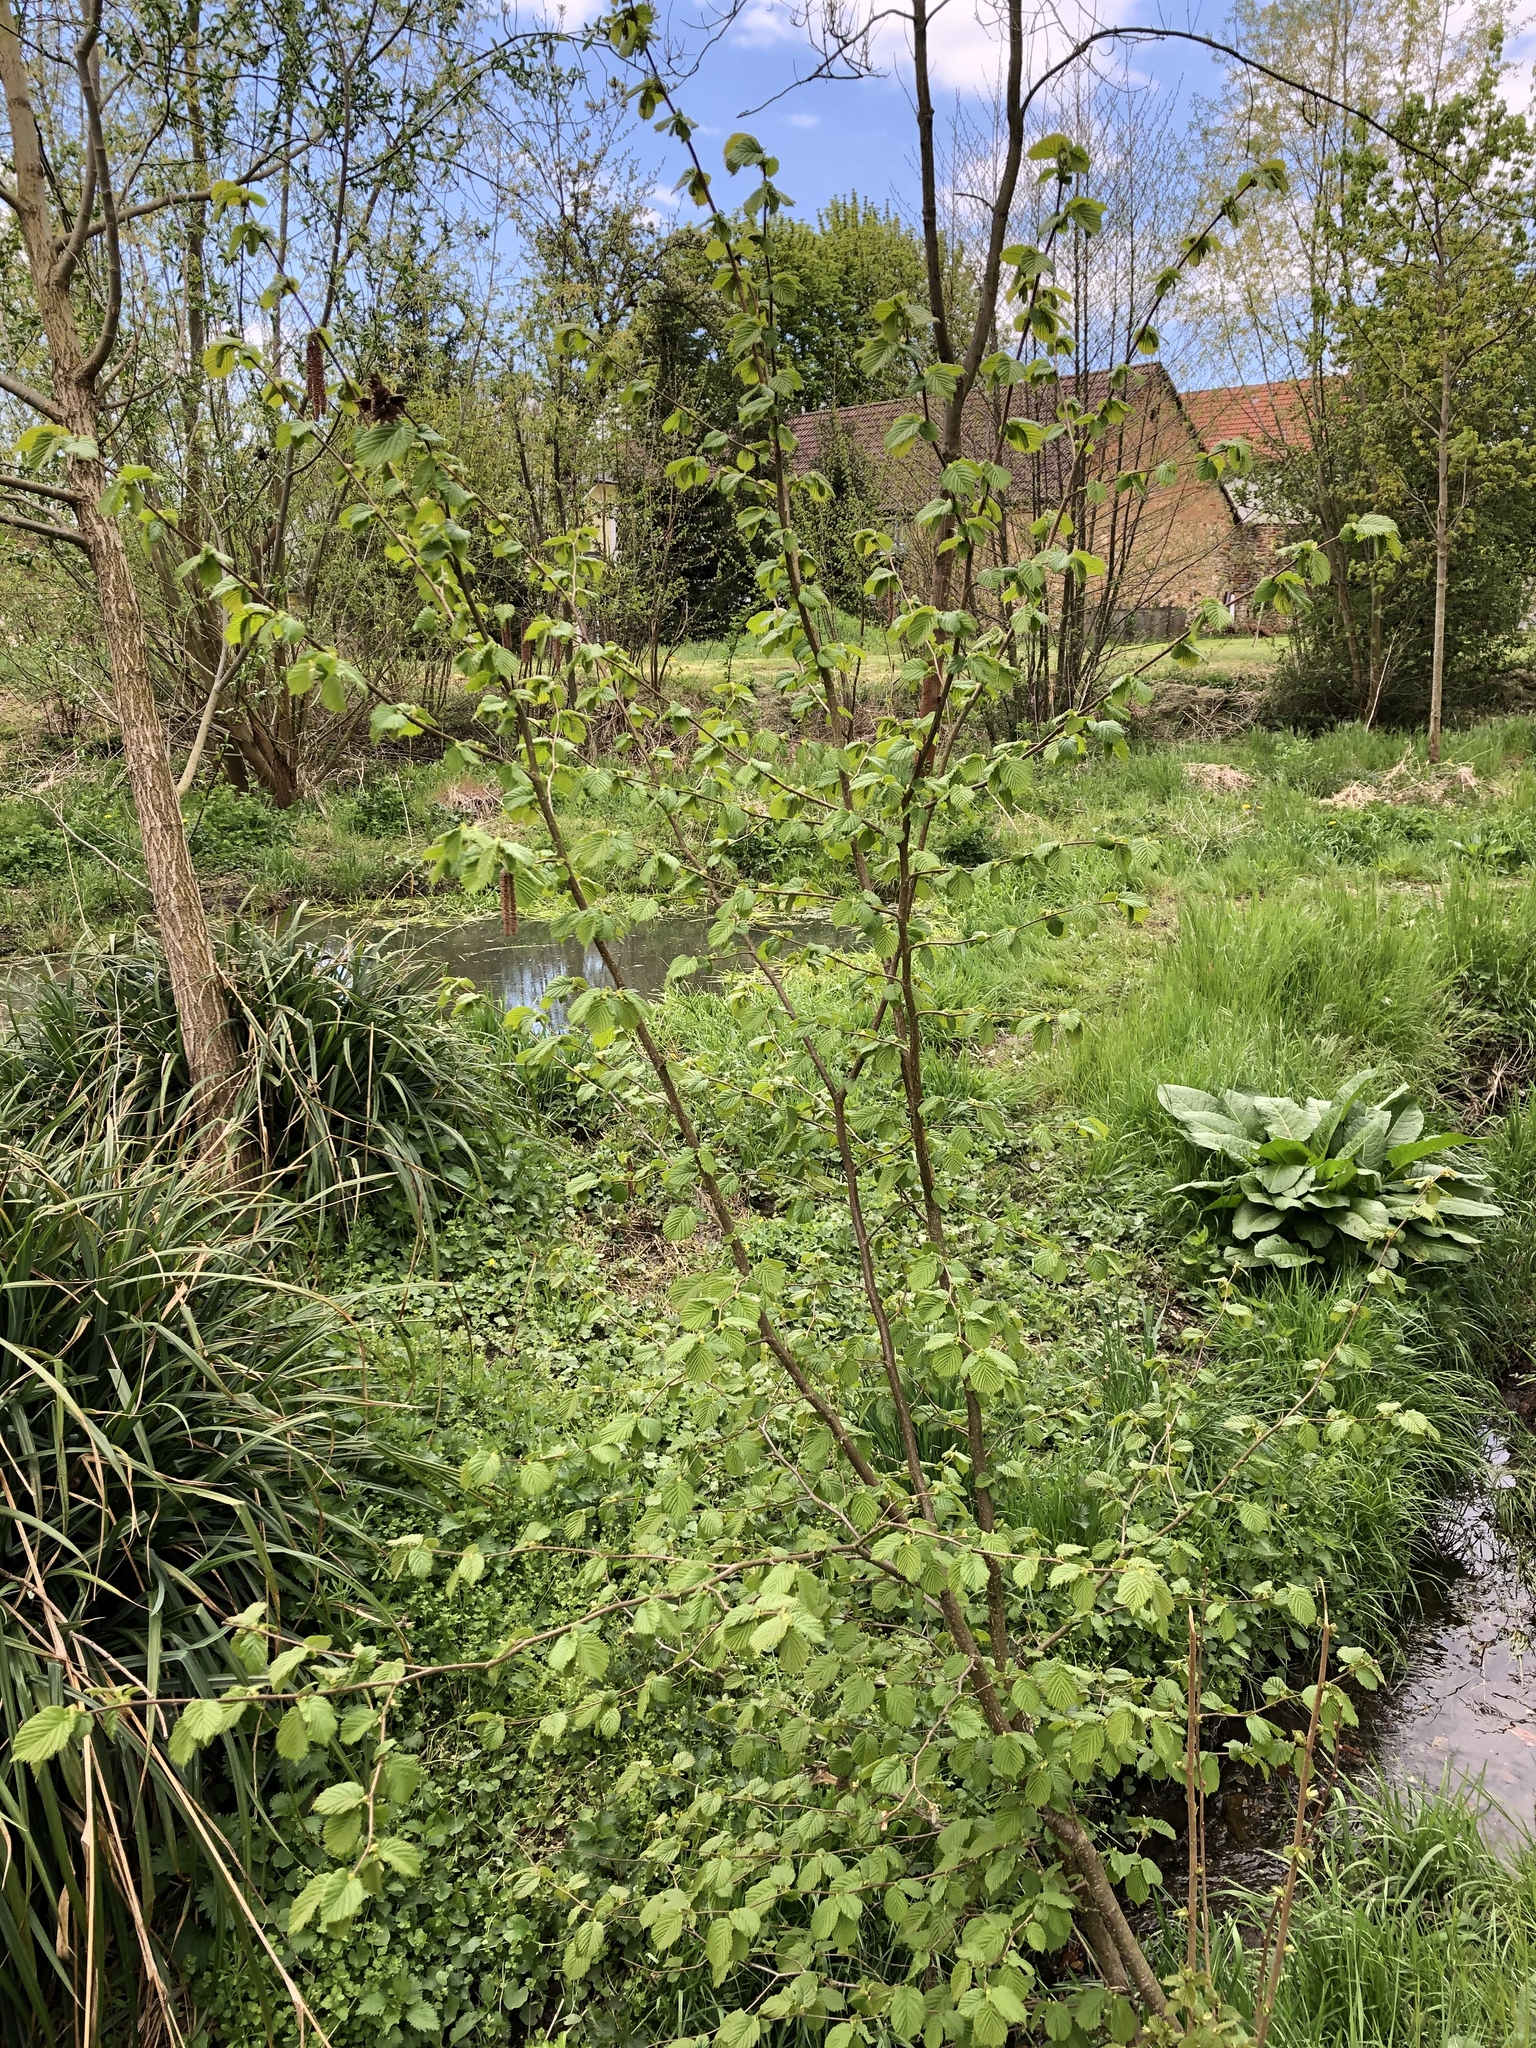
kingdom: Plantae
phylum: Tracheophyta
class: Magnoliopsida
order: Fagales
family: Betulaceae
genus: Corylus
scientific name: Corylus avellana
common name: European hazel
